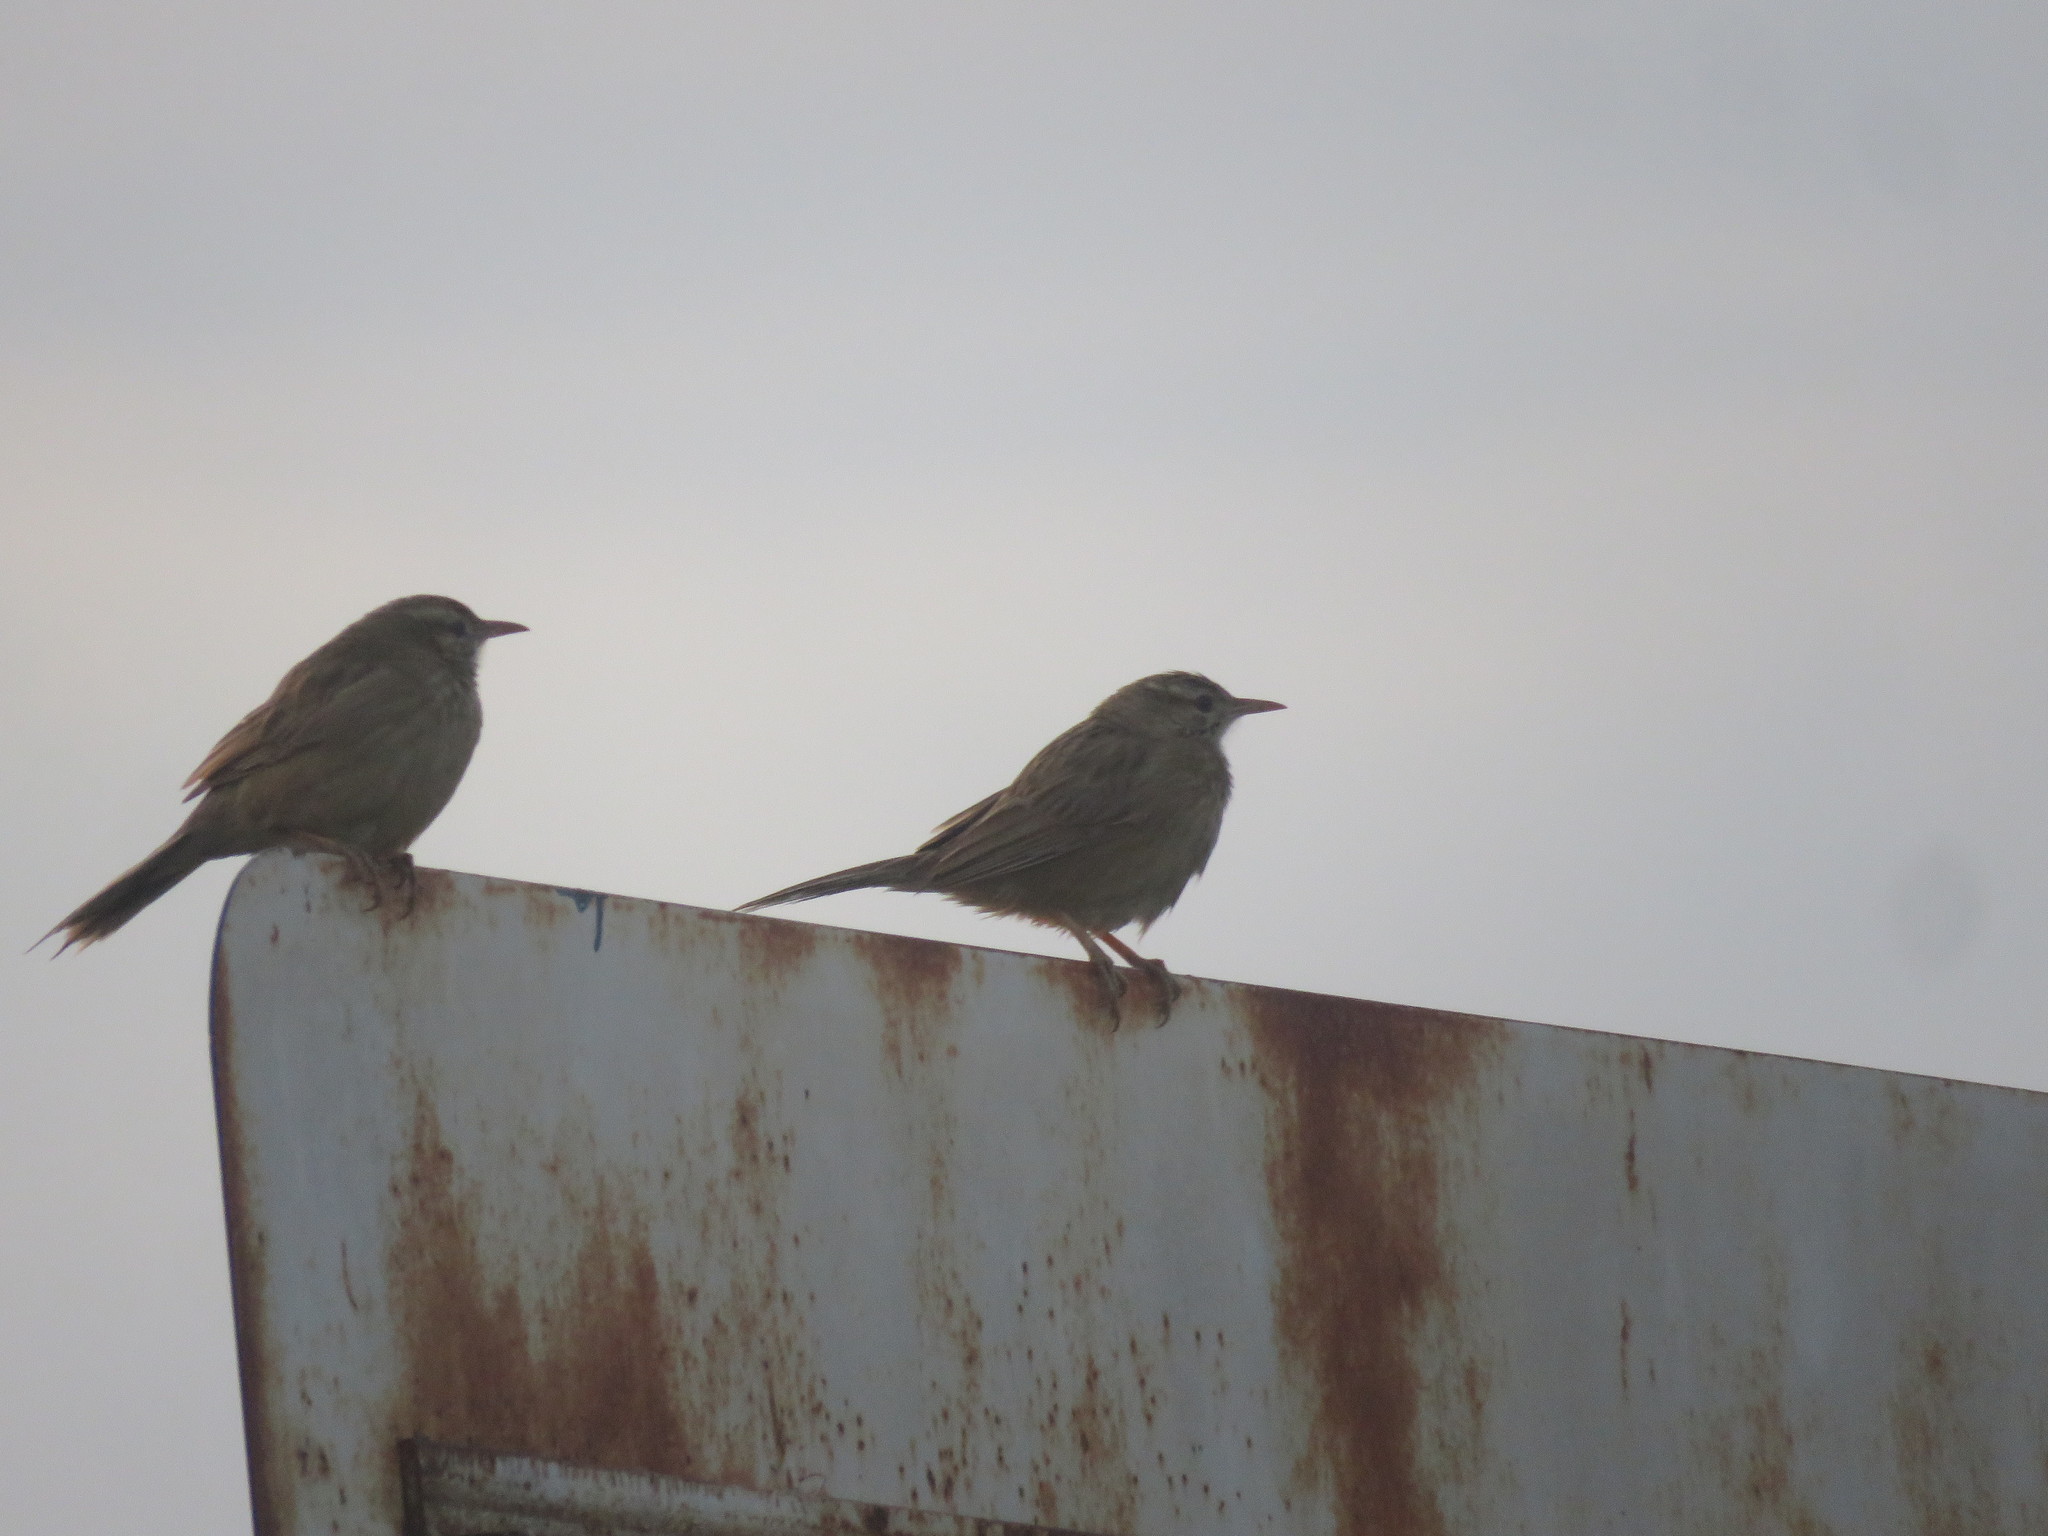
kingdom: Animalia
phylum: Chordata
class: Aves
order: Passeriformes
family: Furnariidae
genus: Anumbius
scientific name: Anumbius annumbi
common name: Firewood-gatherer
